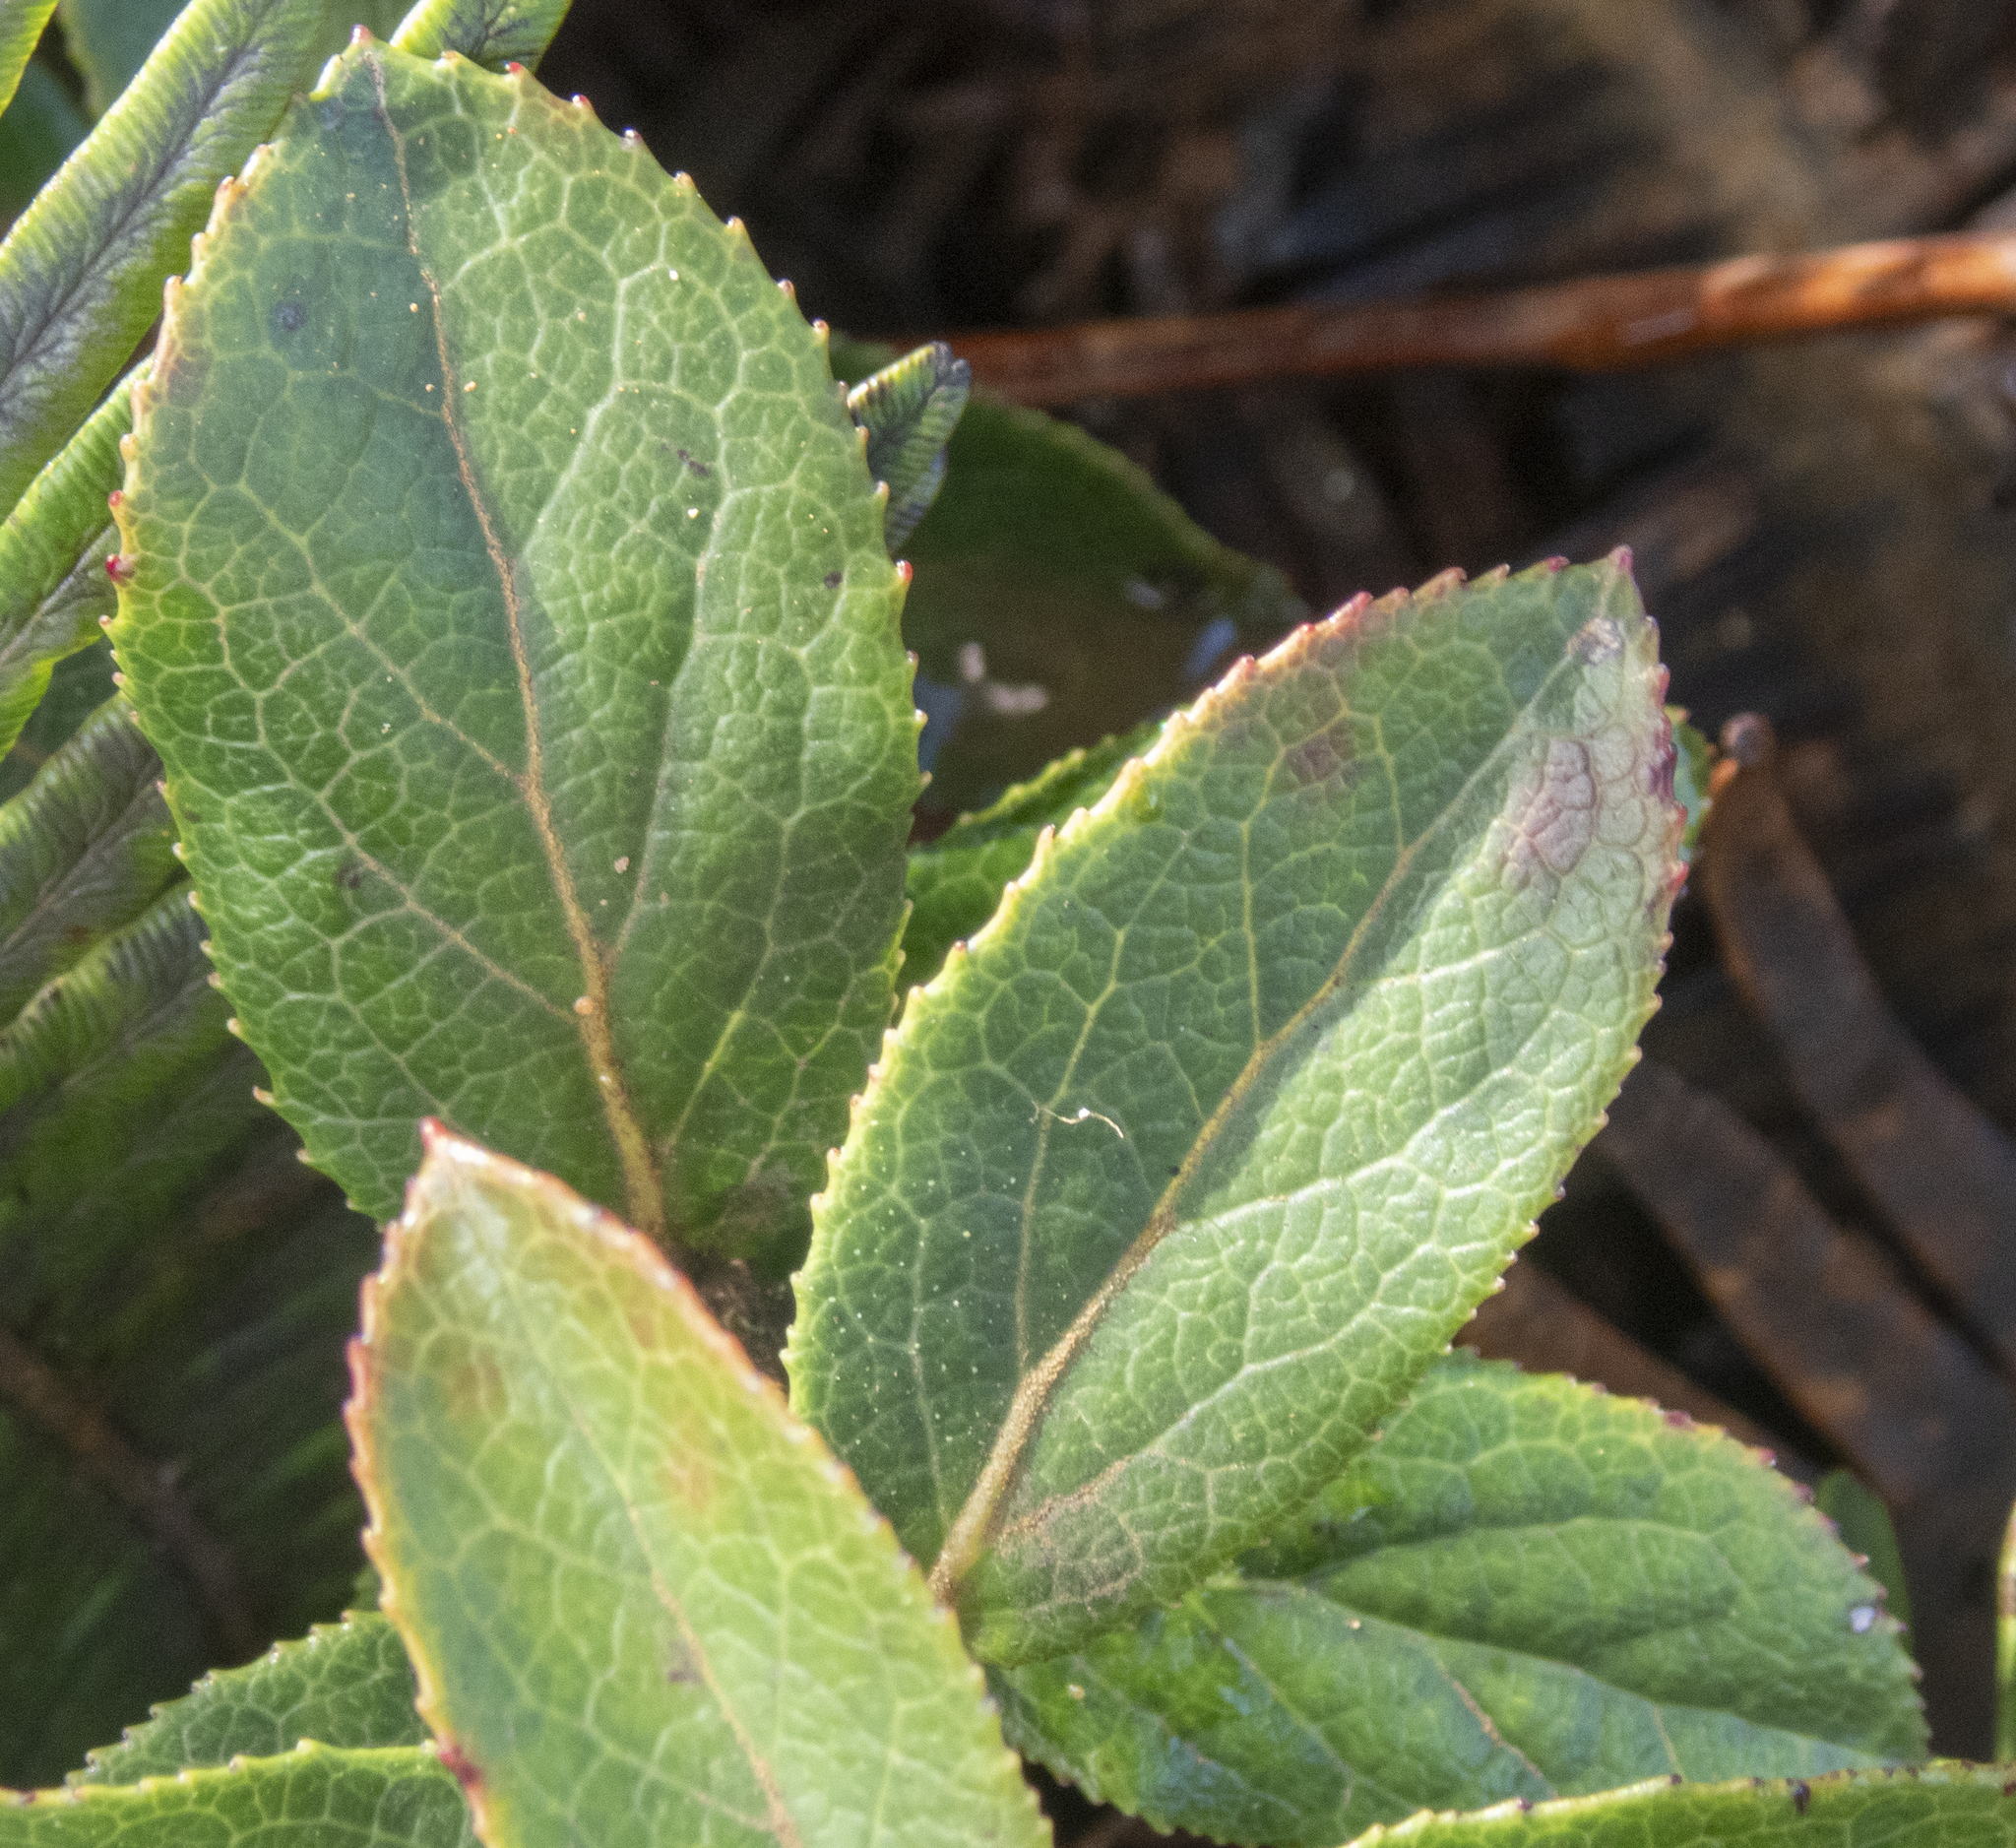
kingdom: Plantae
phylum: Tracheophyta
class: Magnoliopsida
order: Ericales
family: Ericaceae
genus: Vaccinium
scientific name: Vaccinium dentatum
